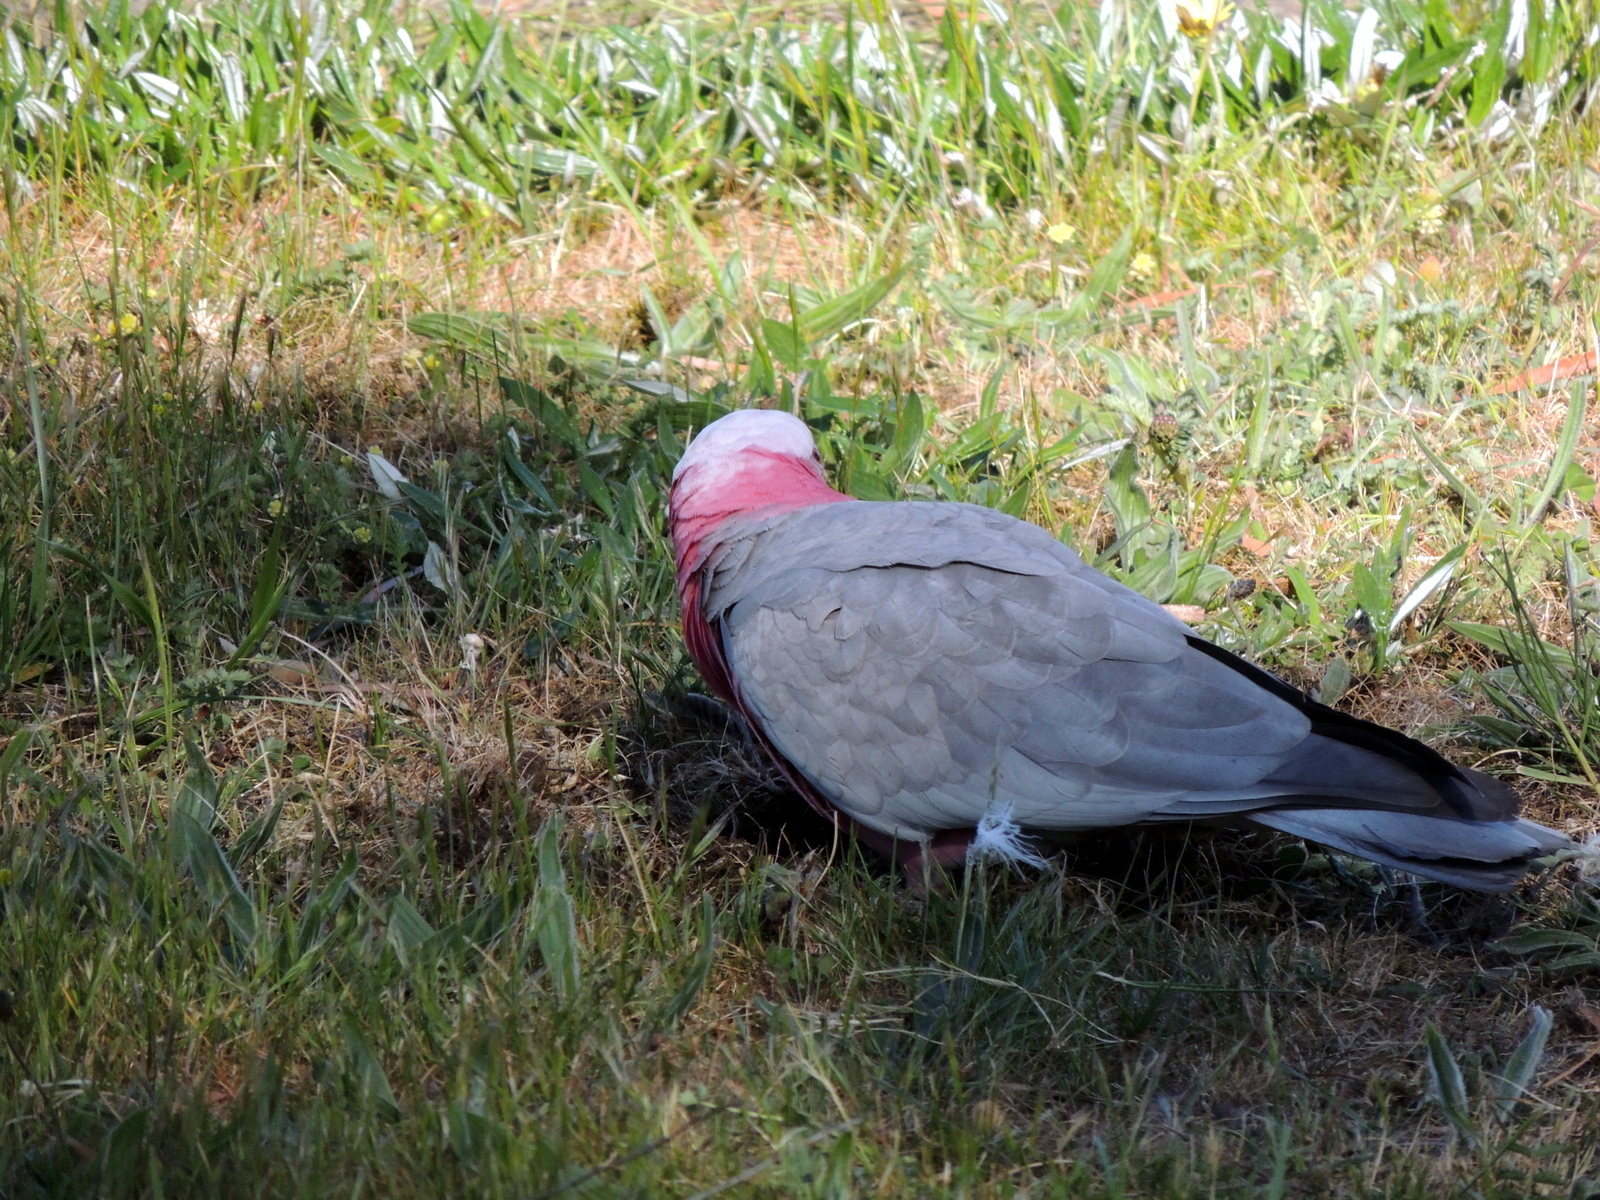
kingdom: Animalia
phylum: Chordata
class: Aves
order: Psittaciformes
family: Psittacidae
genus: Eolophus
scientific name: Eolophus roseicapilla
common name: Galah
